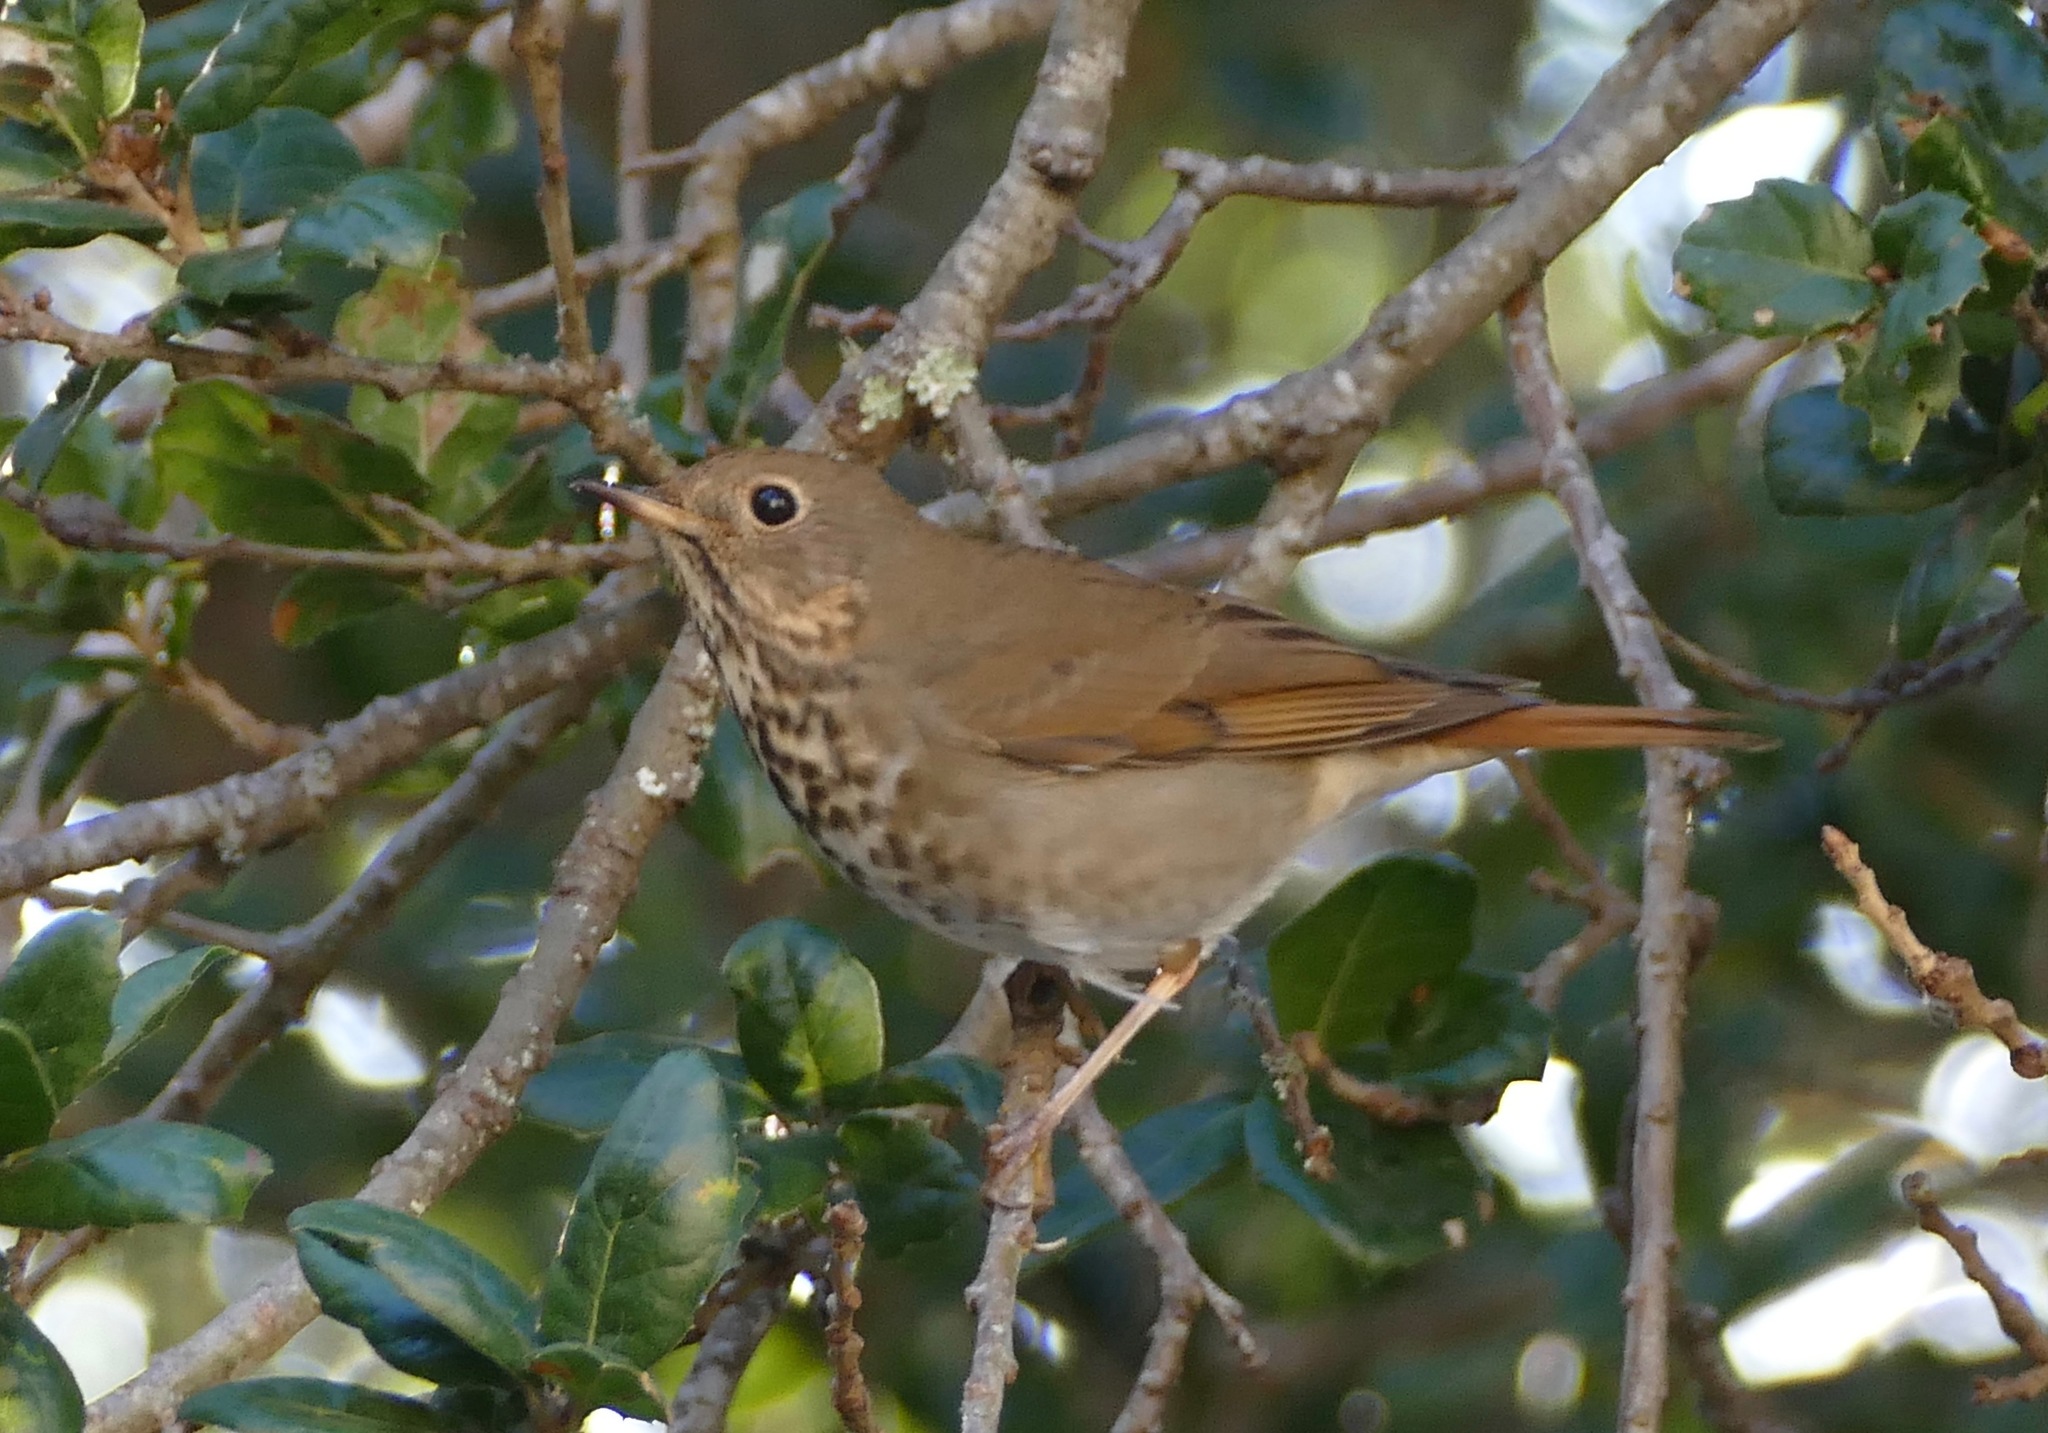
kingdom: Animalia
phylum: Chordata
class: Aves
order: Passeriformes
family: Turdidae
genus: Catharus
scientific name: Catharus guttatus
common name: Hermit thrush
